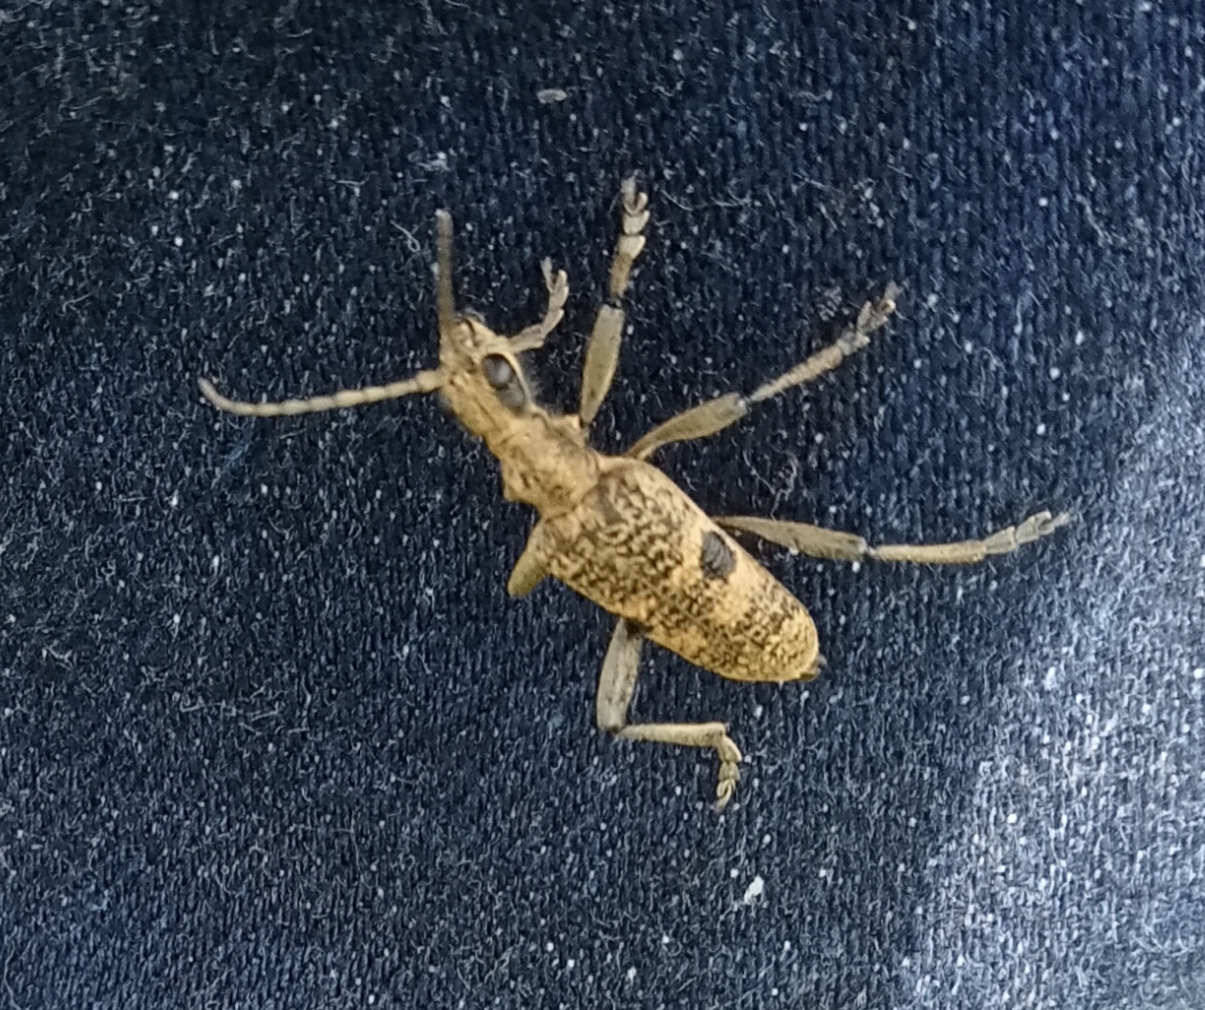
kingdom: Animalia
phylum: Arthropoda
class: Insecta
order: Coleoptera
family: Cerambycidae
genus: Rhagium
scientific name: Rhagium mordax
